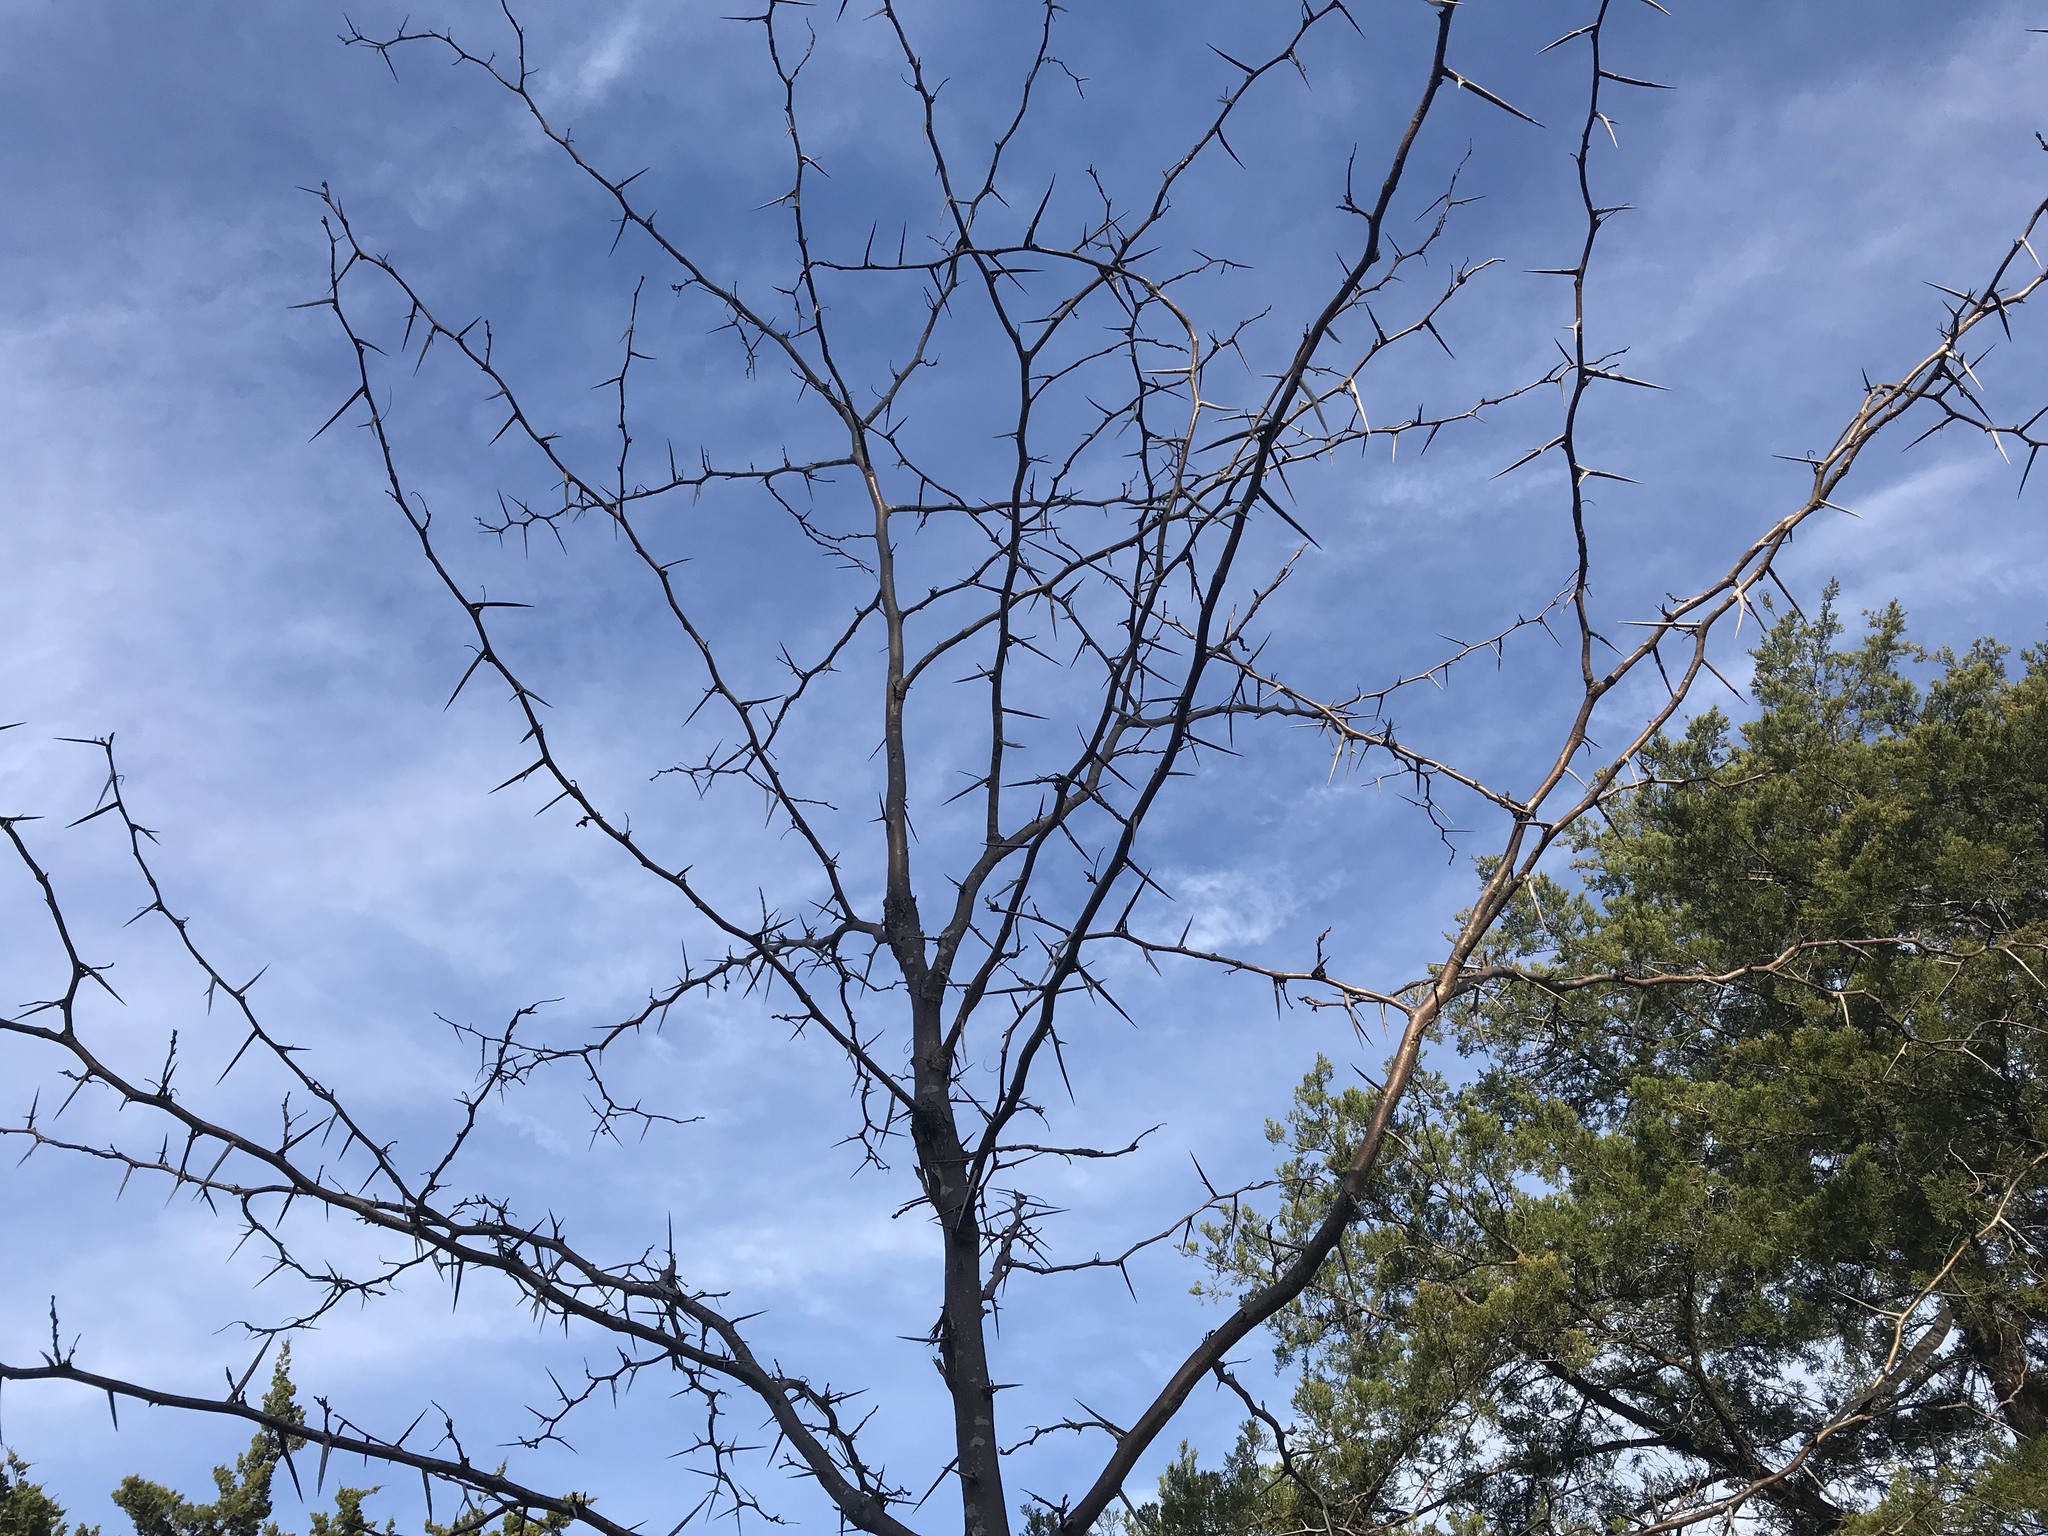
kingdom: Plantae
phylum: Tracheophyta
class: Magnoliopsida
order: Fabales
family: Fabaceae
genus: Gleditsia
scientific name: Gleditsia triacanthos
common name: Common honeylocust
